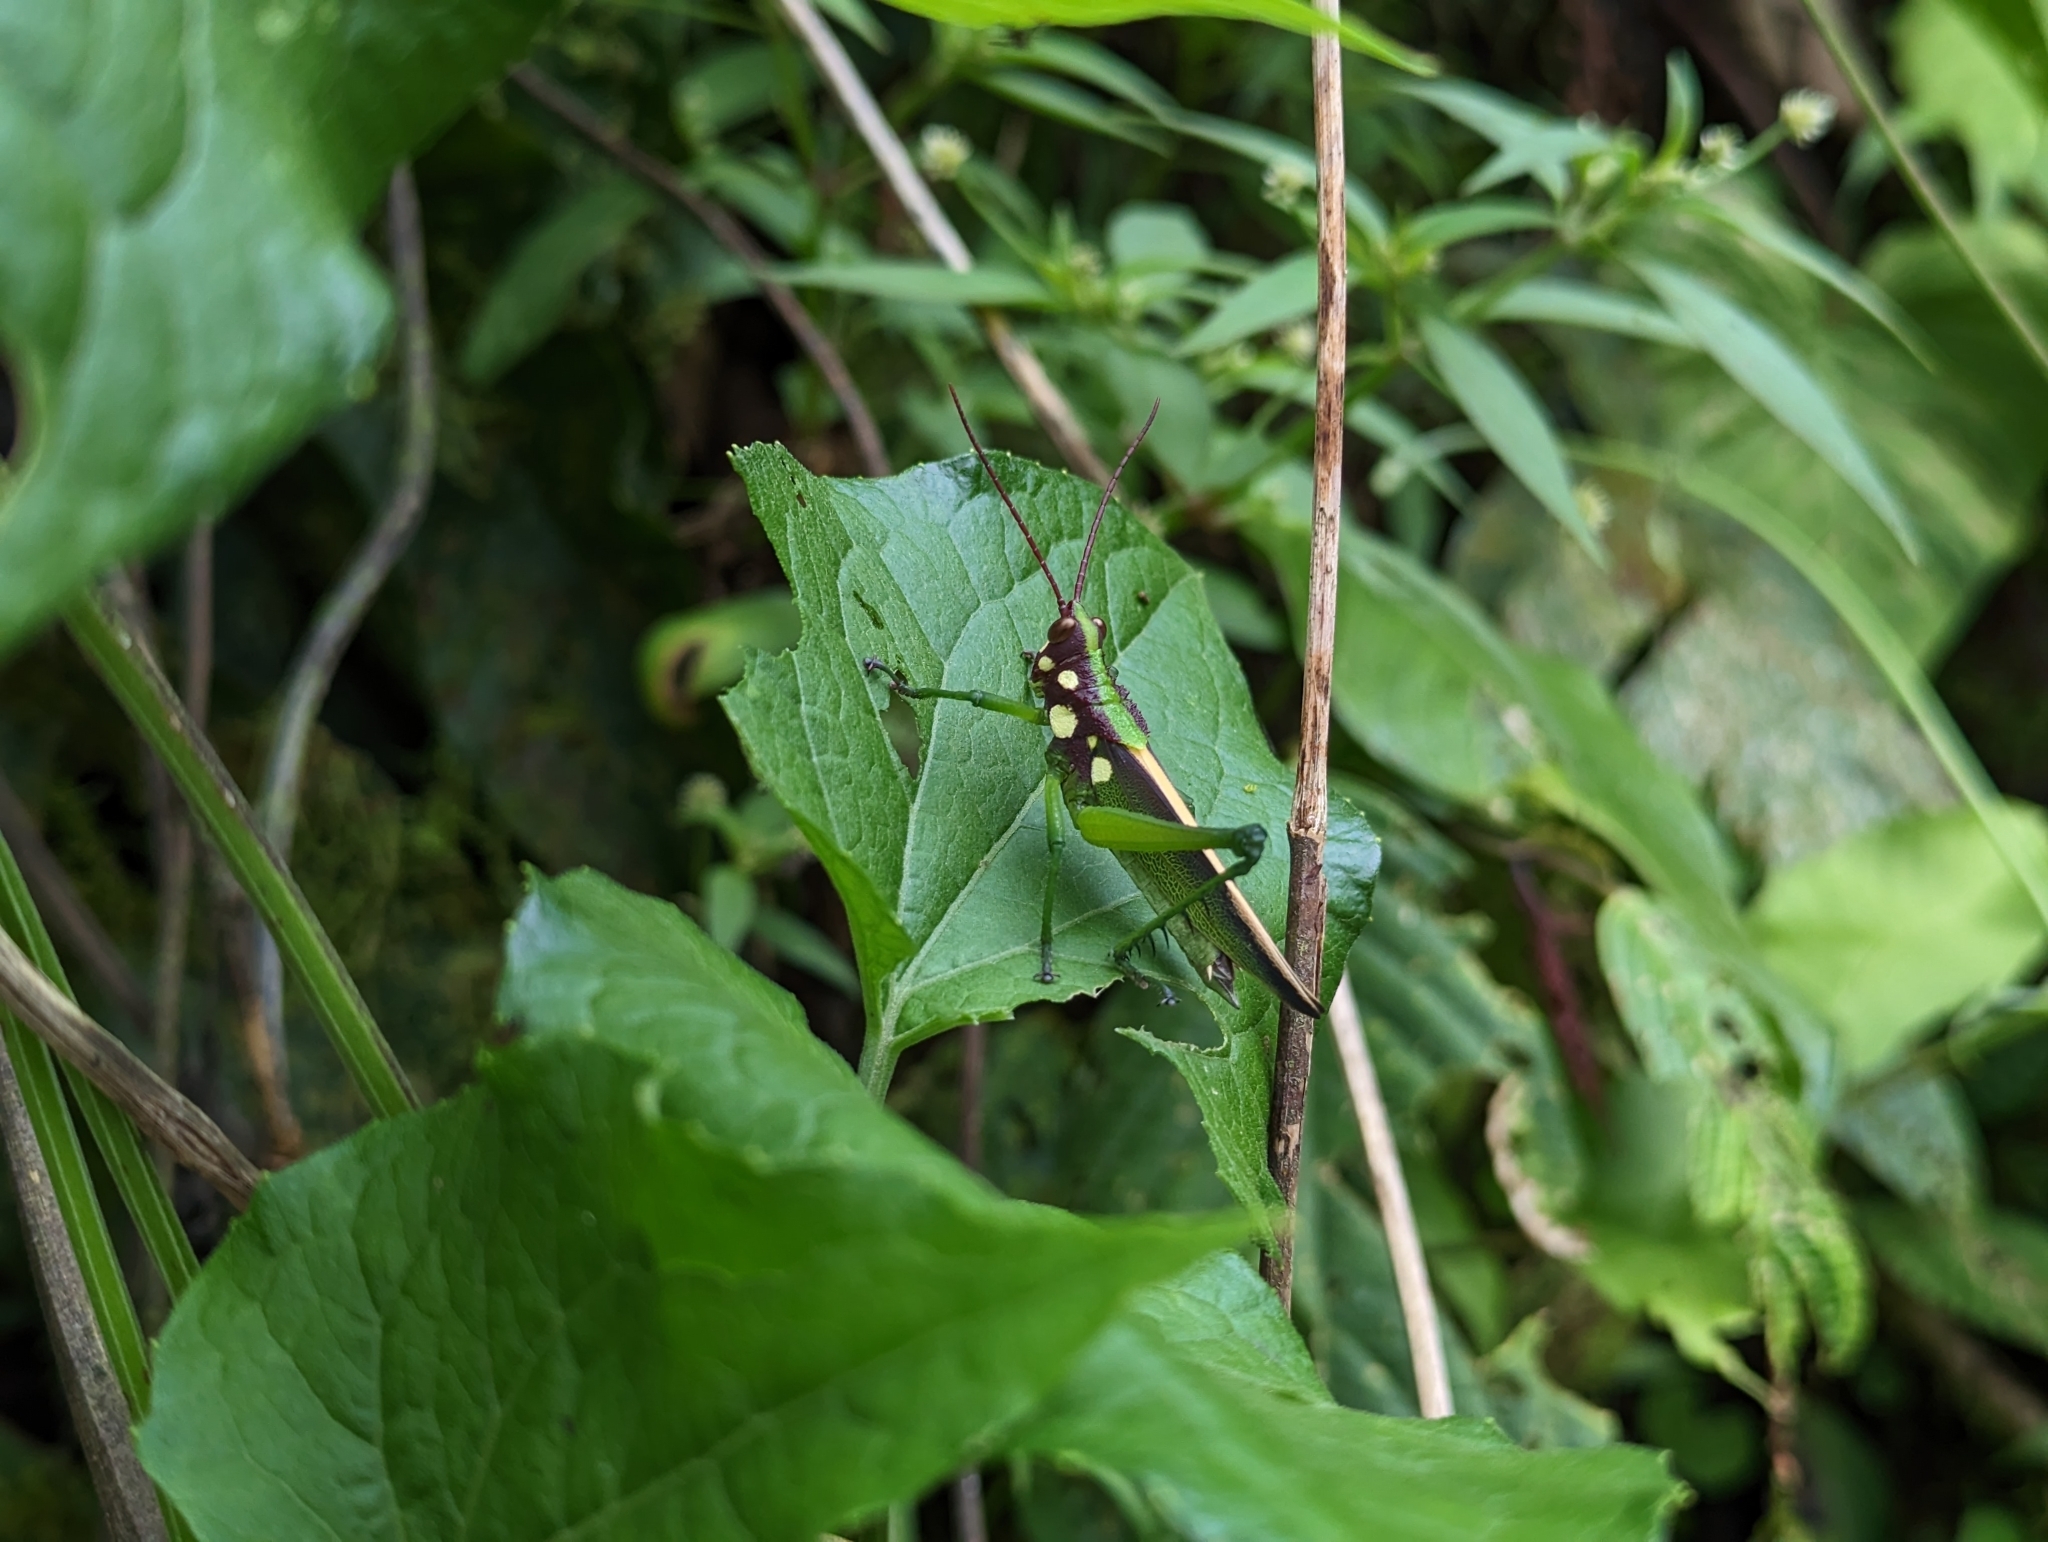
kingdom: Animalia
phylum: Arthropoda
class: Insecta
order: Orthoptera
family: Romaleidae
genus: Agriacris
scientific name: Agriacris magnifica
